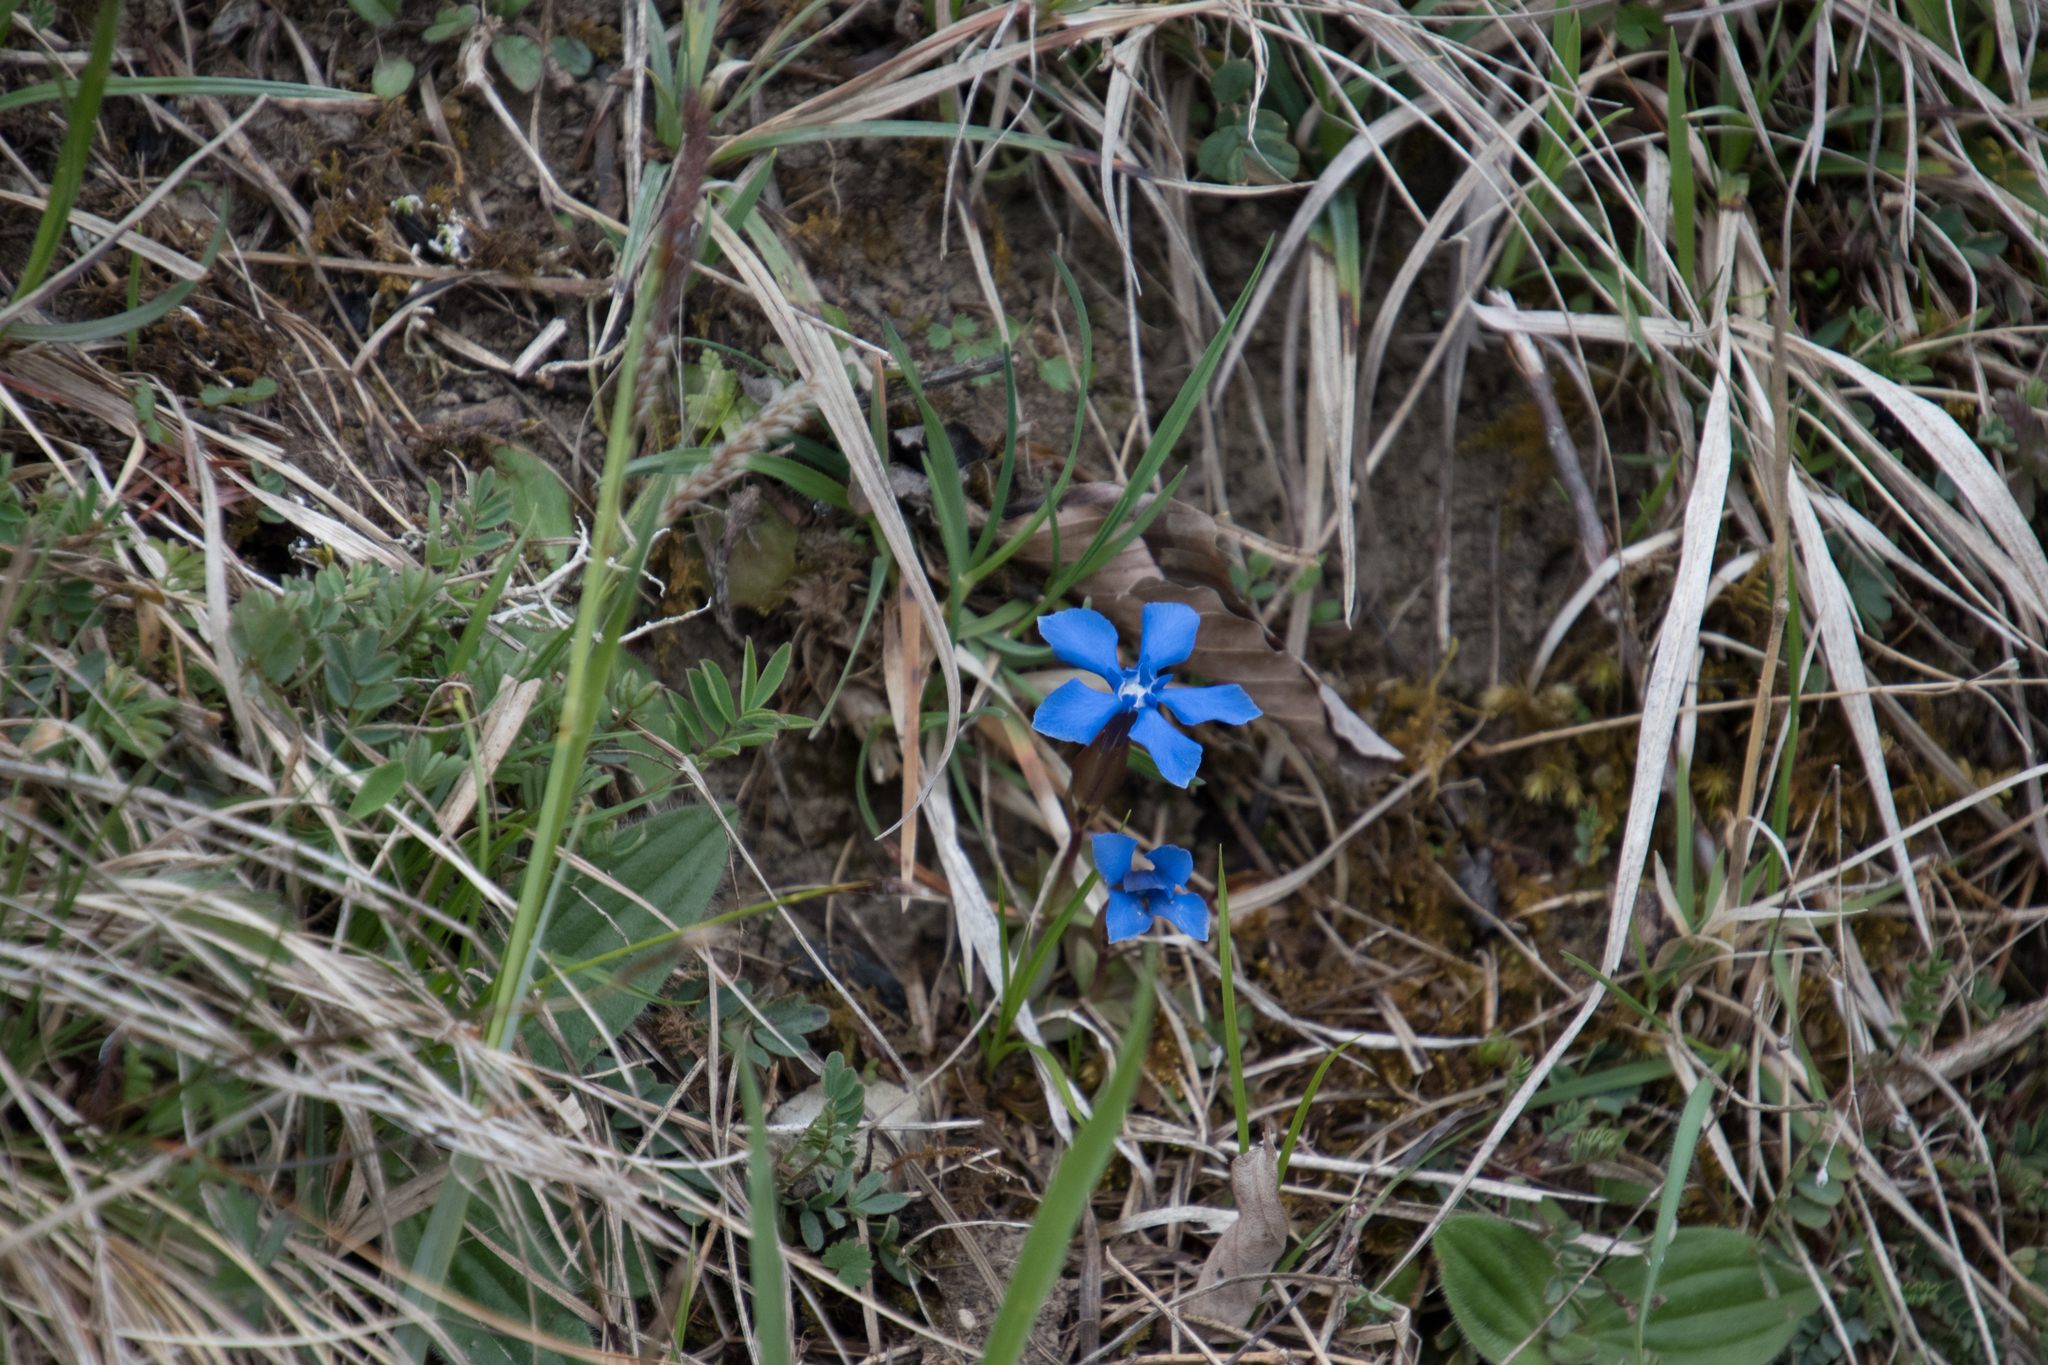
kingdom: Plantae
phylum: Tracheophyta
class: Magnoliopsida
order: Gentianales
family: Gentianaceae
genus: Gentiana
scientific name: Gentiana verna
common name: Spring gentian
